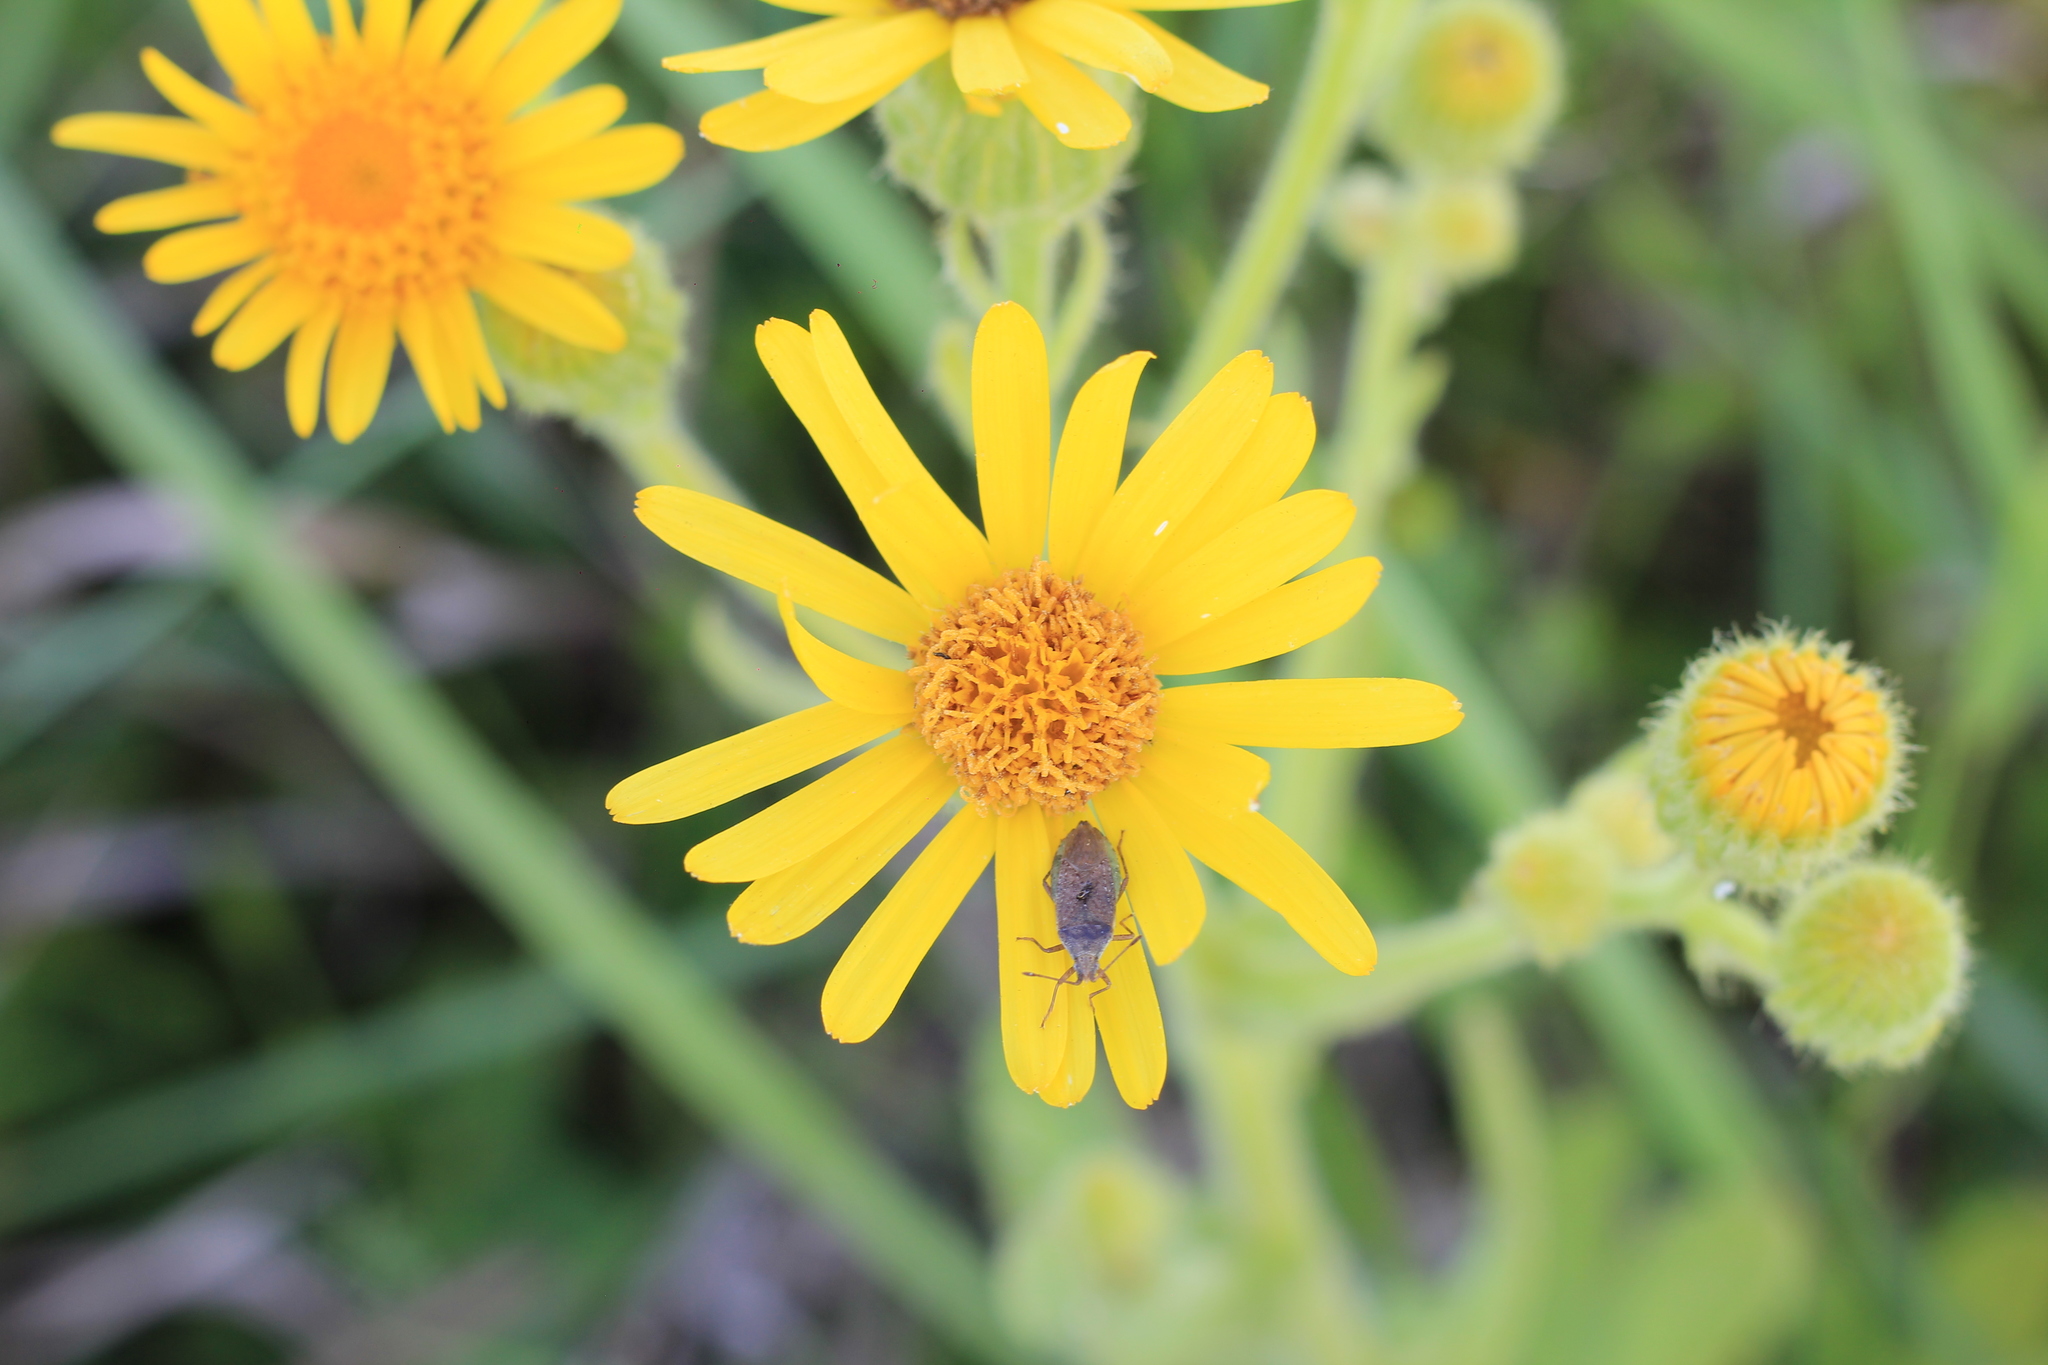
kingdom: Animalia
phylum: Arthropoda
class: Insecta
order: Hemiptera
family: Coreidae
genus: Althos
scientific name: Althos pallescens
